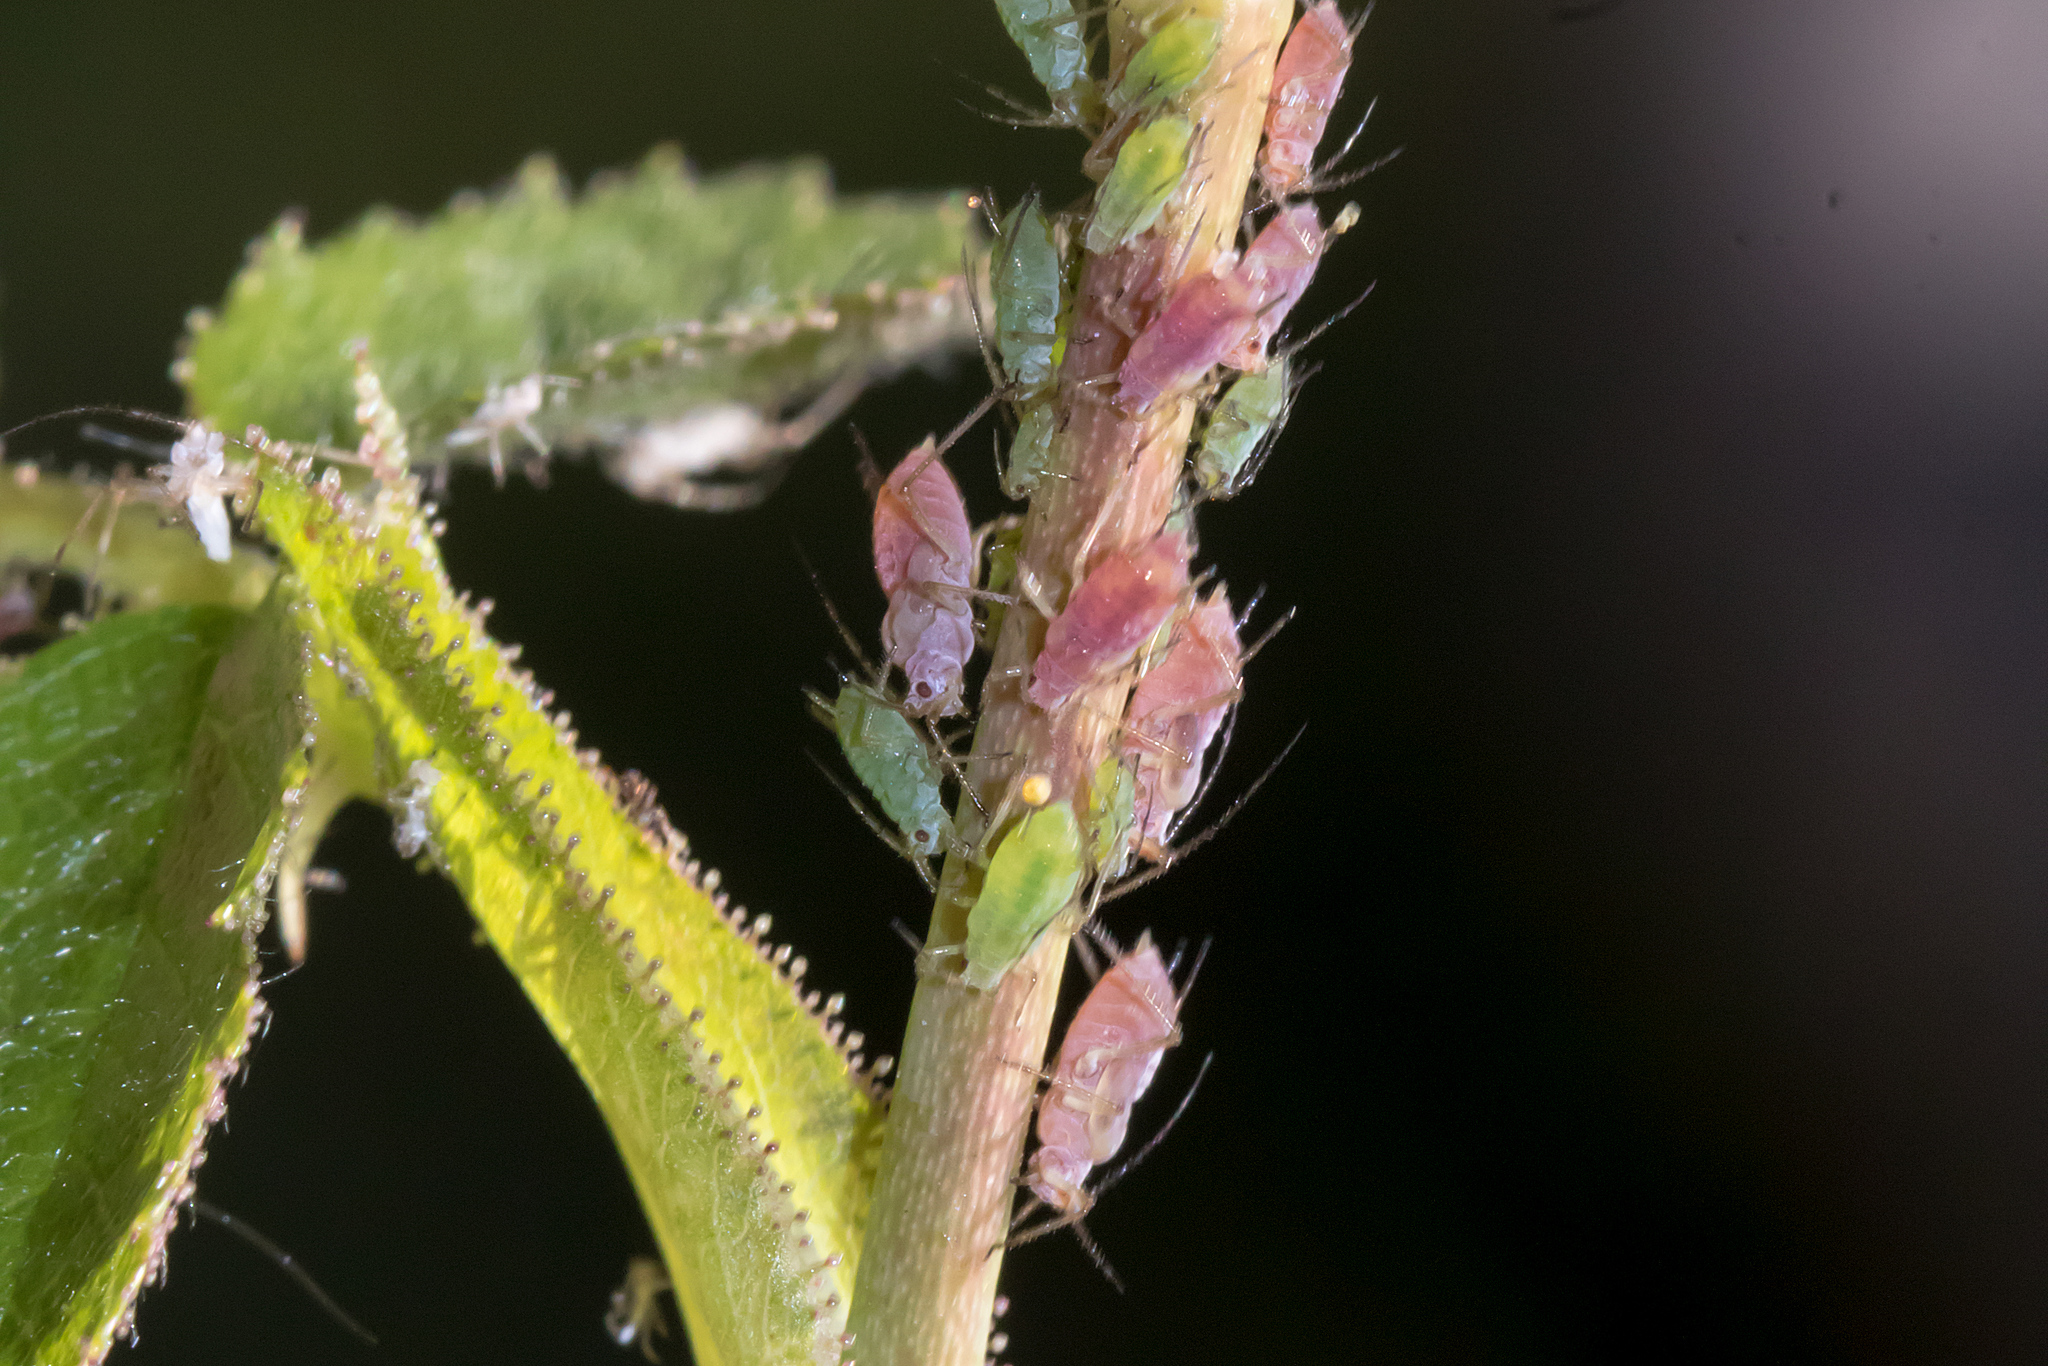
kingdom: Animalia
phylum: Arthropoda
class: Insecta
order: Hemiptera
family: Aphididae
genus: Macrosiphum
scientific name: Macrosiphum rosae
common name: Rose aphid
